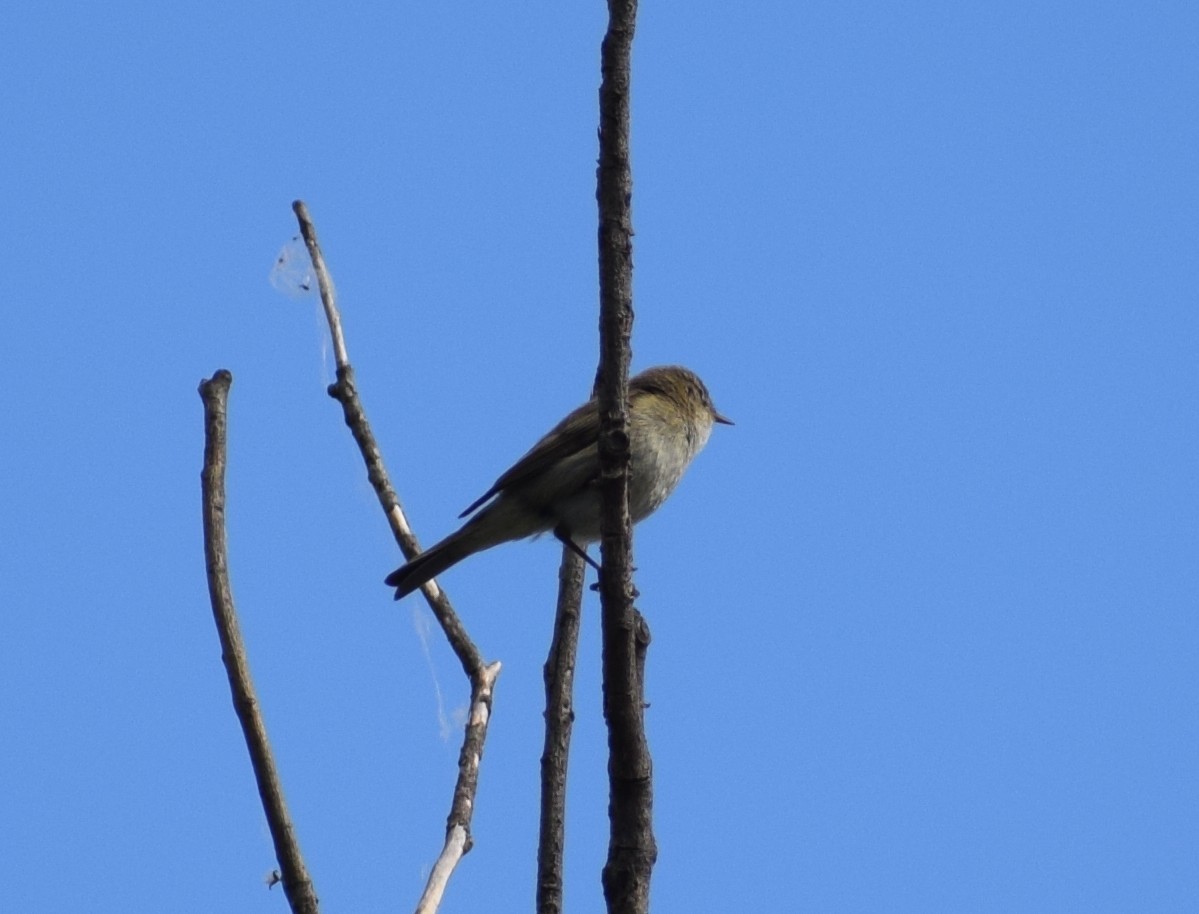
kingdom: Animalia
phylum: Chordata
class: Aves
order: Passeriformes
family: Phylloscopidae
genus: Phylloscopus
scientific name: Phylloscopus collybita
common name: Common chiffchaff
